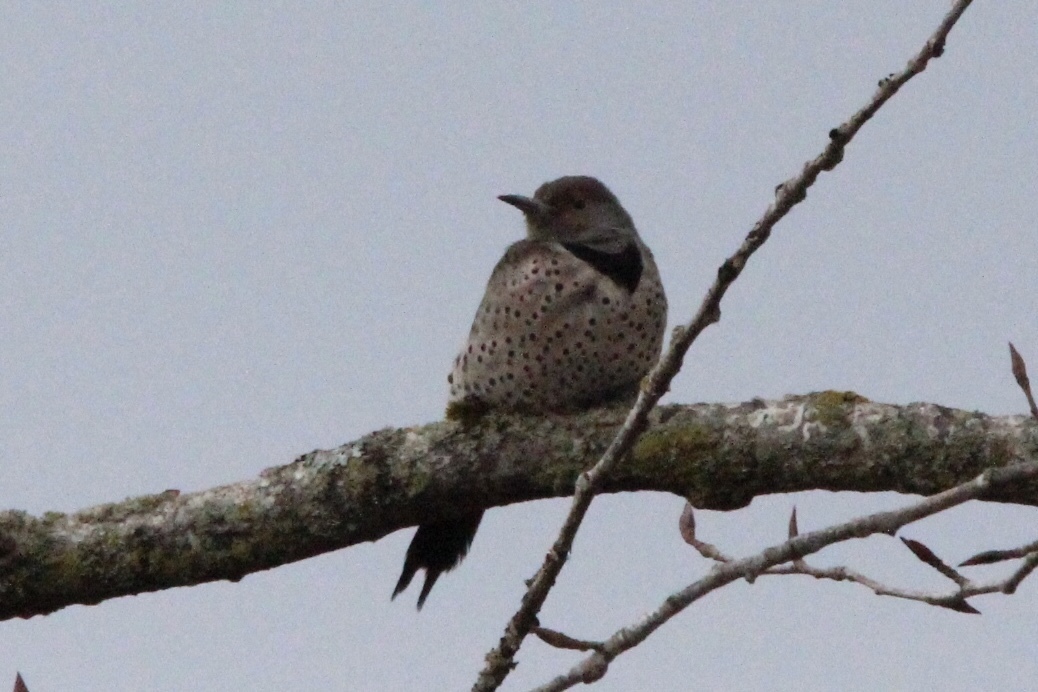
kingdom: Animalia
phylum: Chordata
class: Aves
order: Piciformes
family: Picidae
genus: Colaptes
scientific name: Colaptes auratus
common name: Northern flicker
